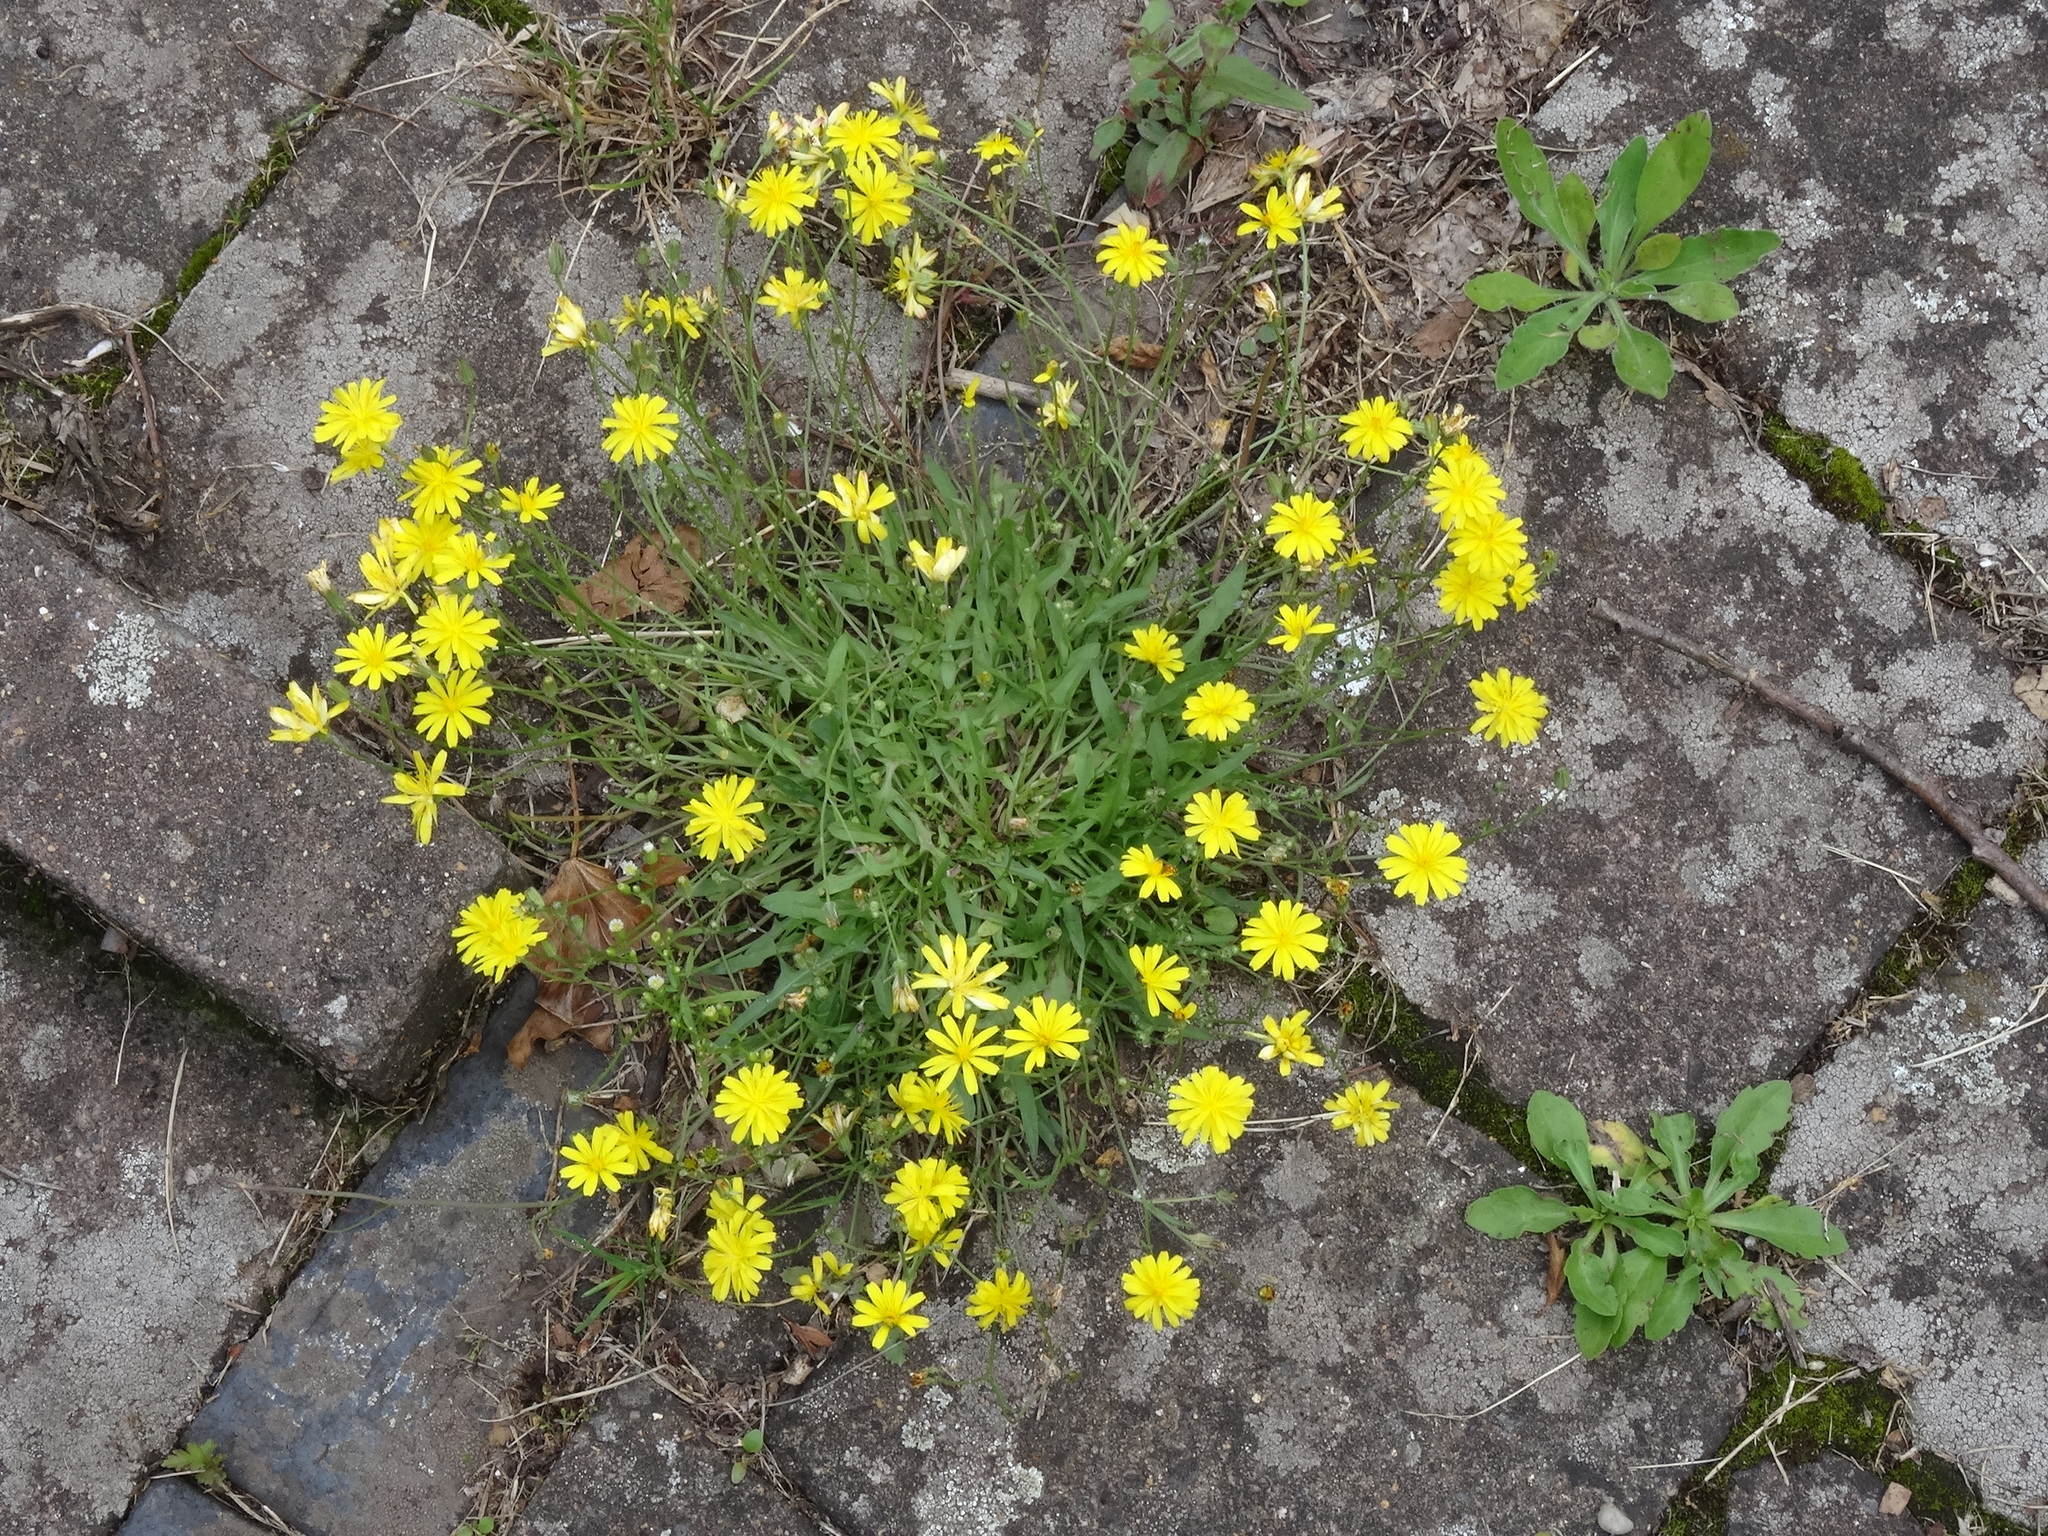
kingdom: Plantae
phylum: Tracheophyta
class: Magnoliopsida
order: Asterales
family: Asteraceae
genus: Scorzoneroides
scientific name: Scorzoneroides autumnalis
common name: Autumn hawkbit
